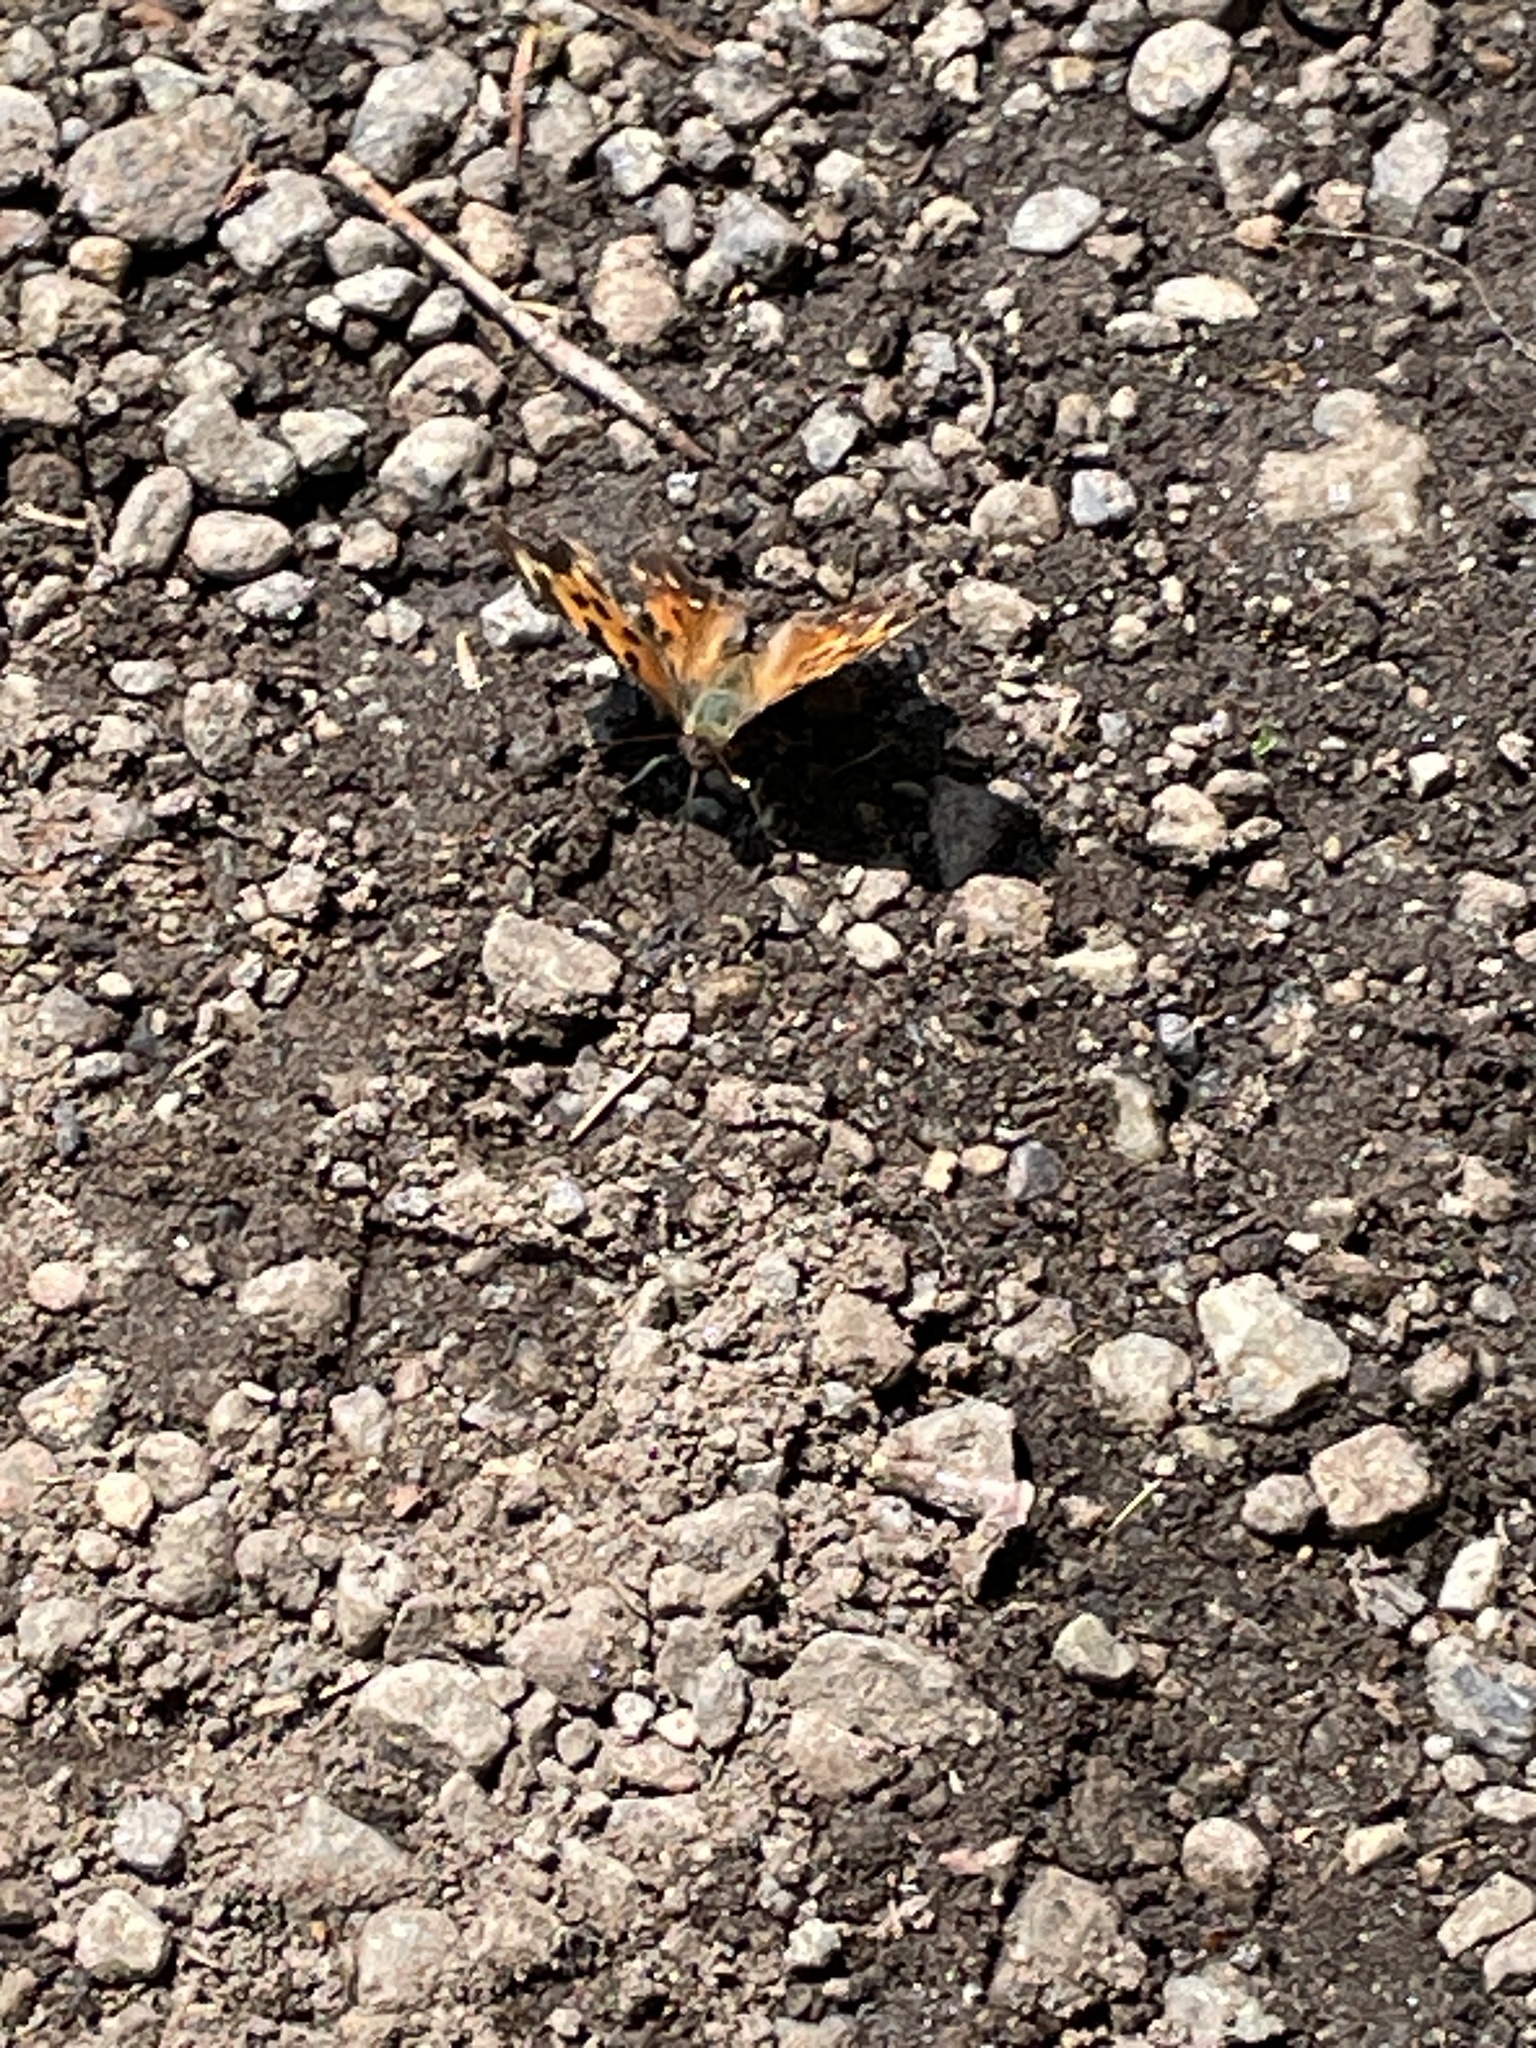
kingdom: Animalia
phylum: Arthropoda
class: Insecta
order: Lepidoptera
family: Nymphalidae
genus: Polygonia
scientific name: Polygonia vaualbum
